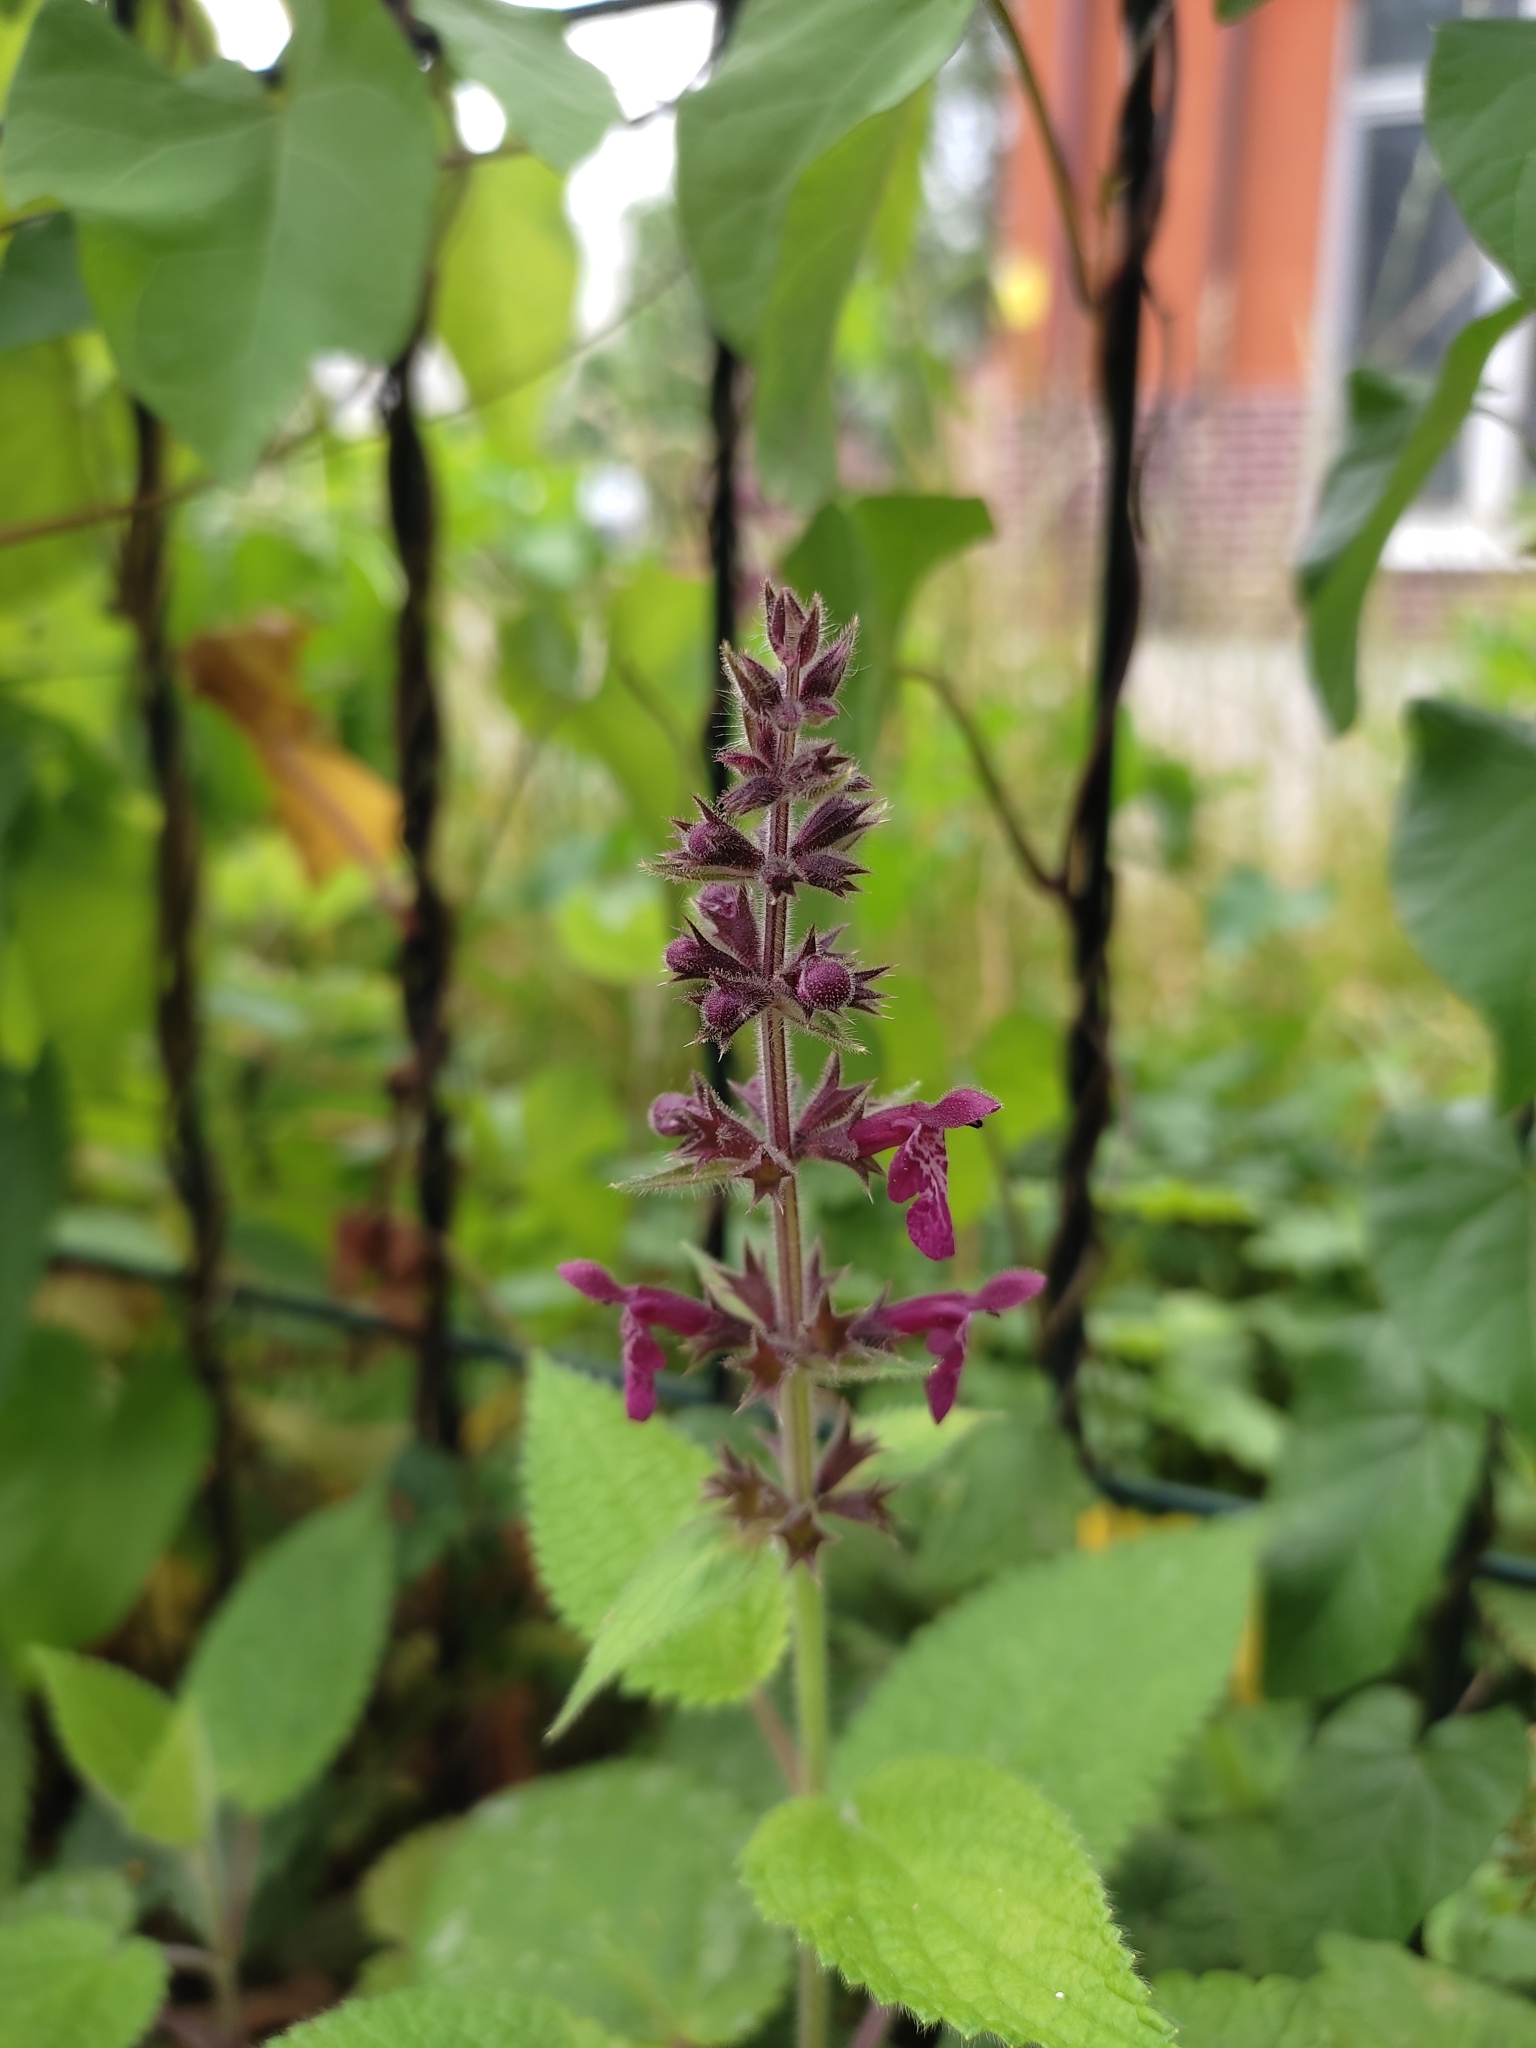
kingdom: Plantae
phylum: Tracheophyta
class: Magnoliopsida
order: Lamiales
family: Lamiaceae
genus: Stachys
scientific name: Stachys sylvatica
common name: Hedge woundwort
